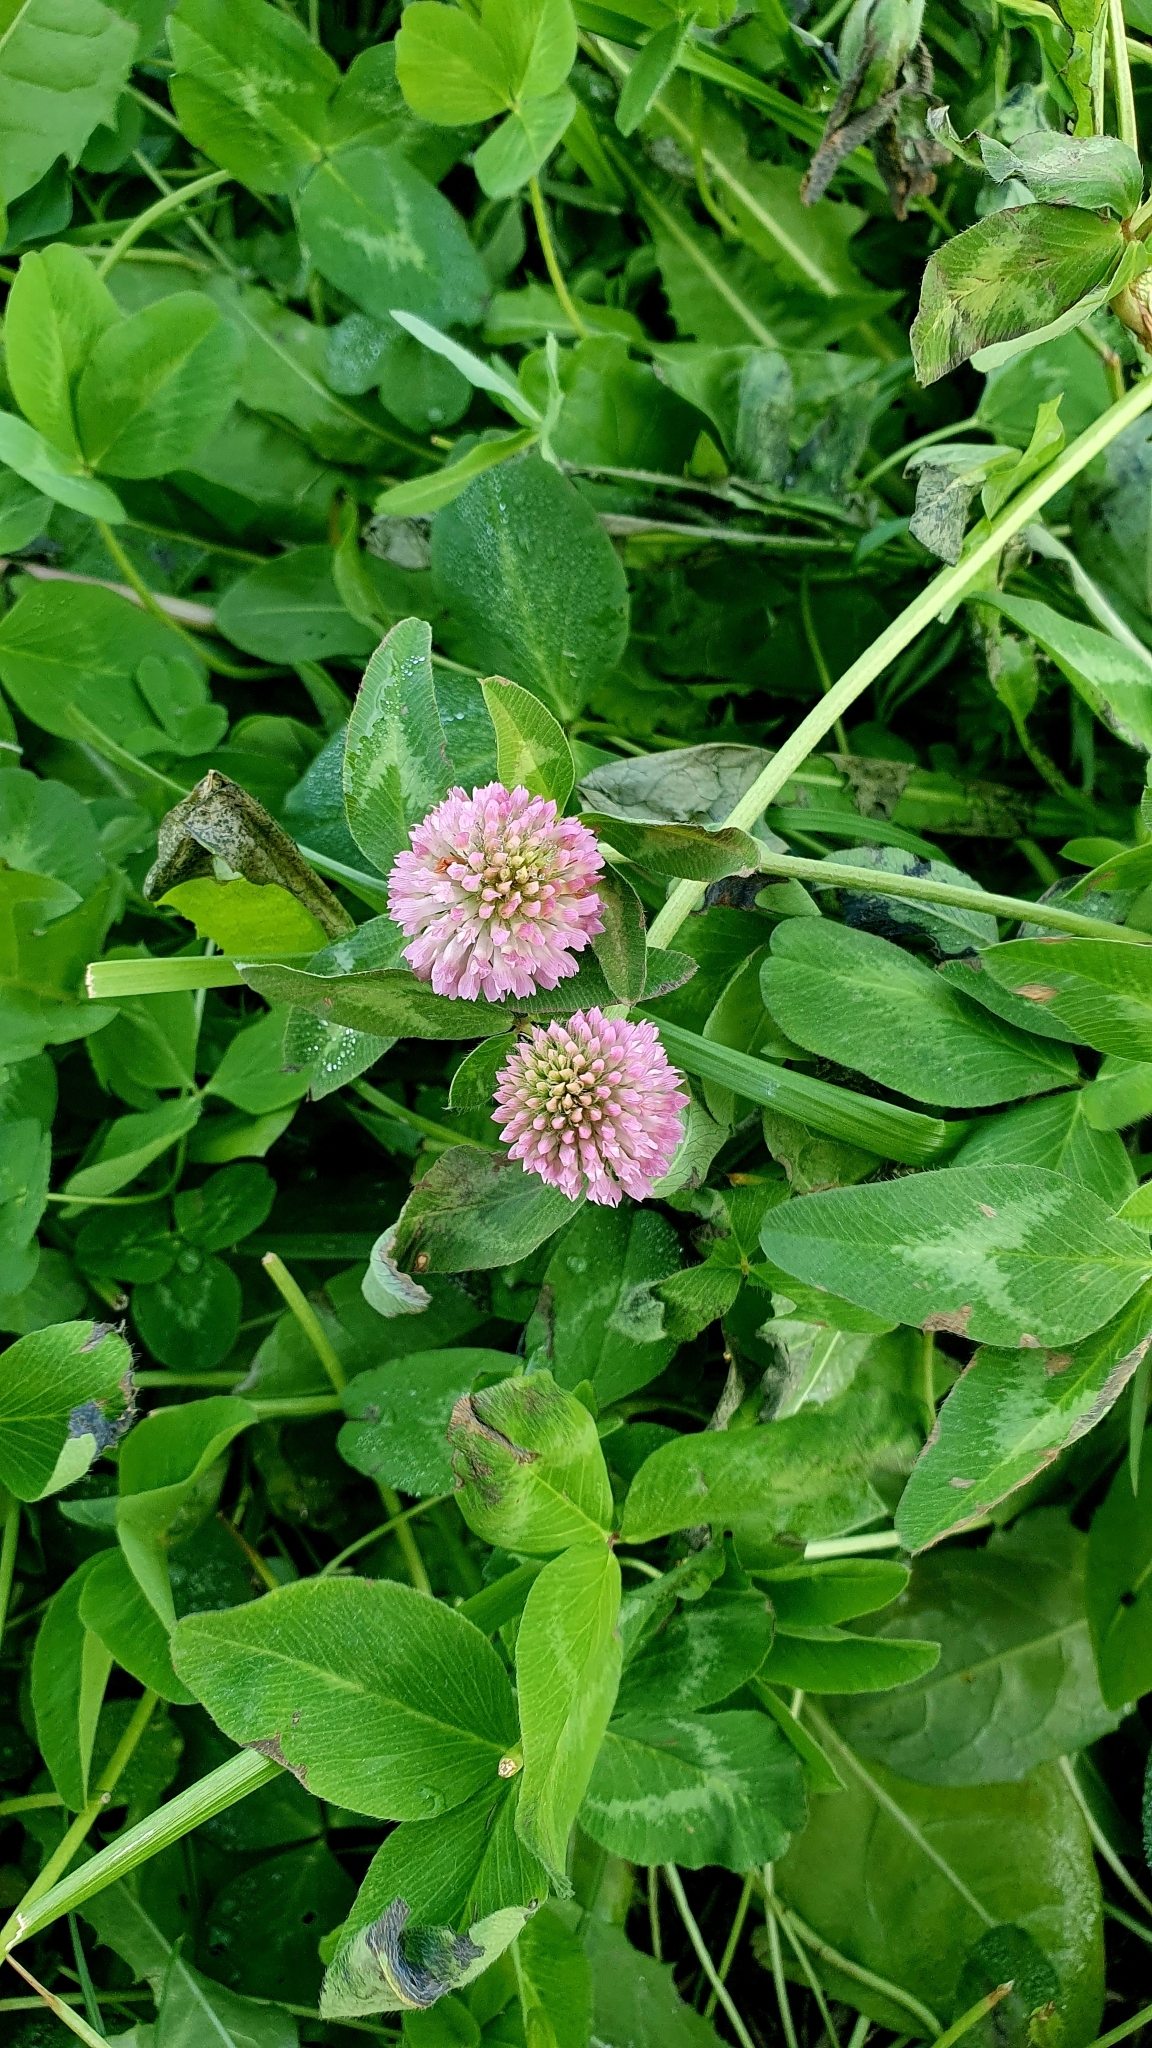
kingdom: Plantae
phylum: Tracheophyta
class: Magnoliopsida
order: Fabales
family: Fabaceae
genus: Trifolium
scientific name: Trifolium pratense
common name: Red clover
